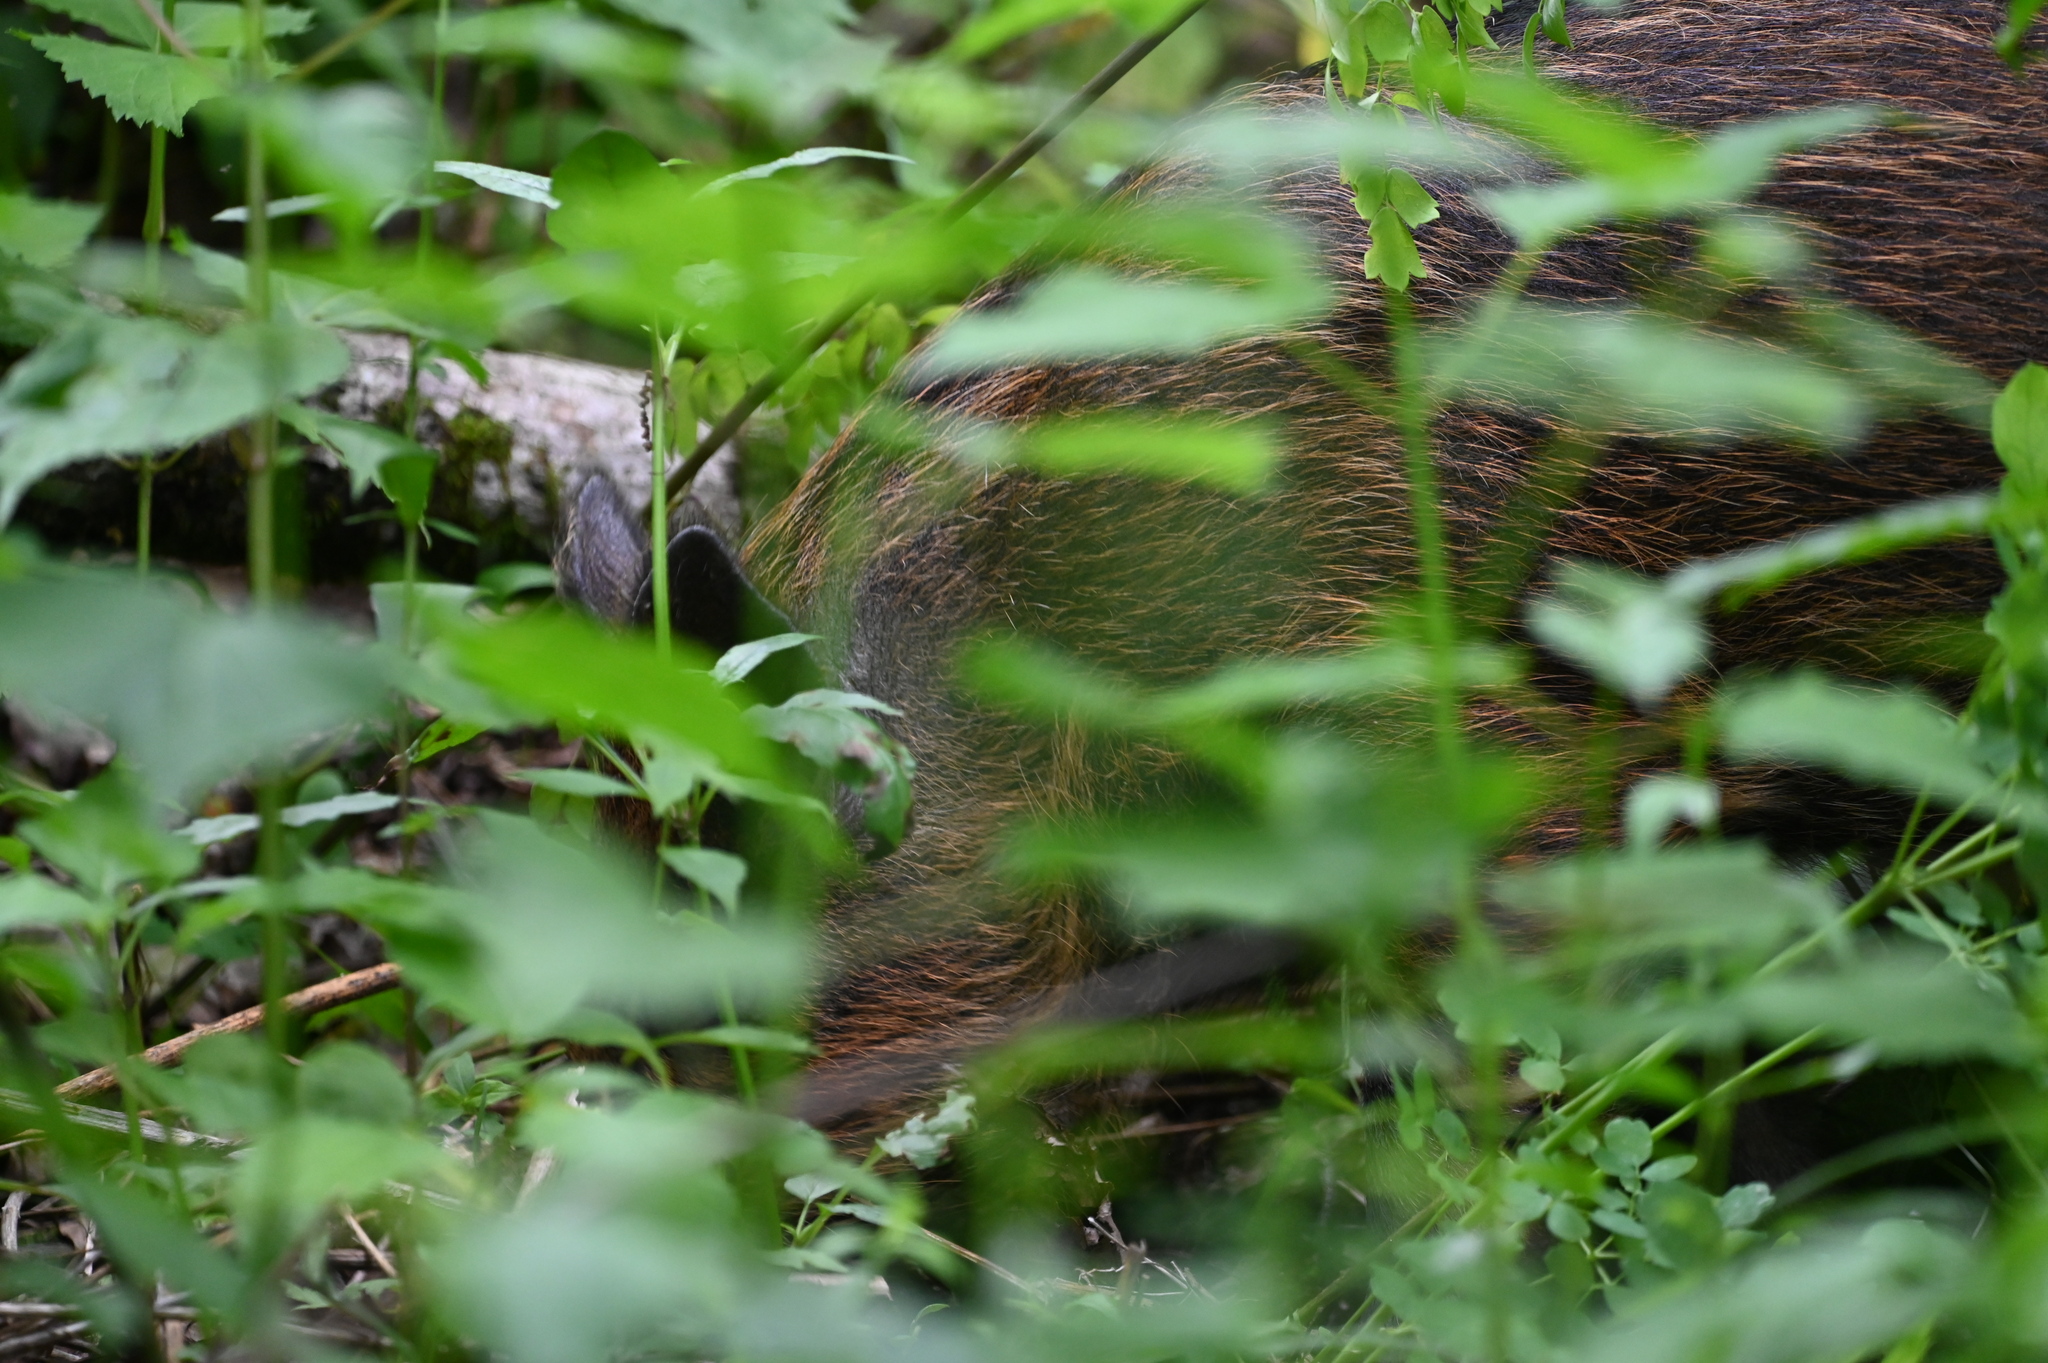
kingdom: Animalia
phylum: Chordata
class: Mammalia
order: Artiodactyla
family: Suidae
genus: Sus
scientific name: Sus scrofa
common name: Wild boar
